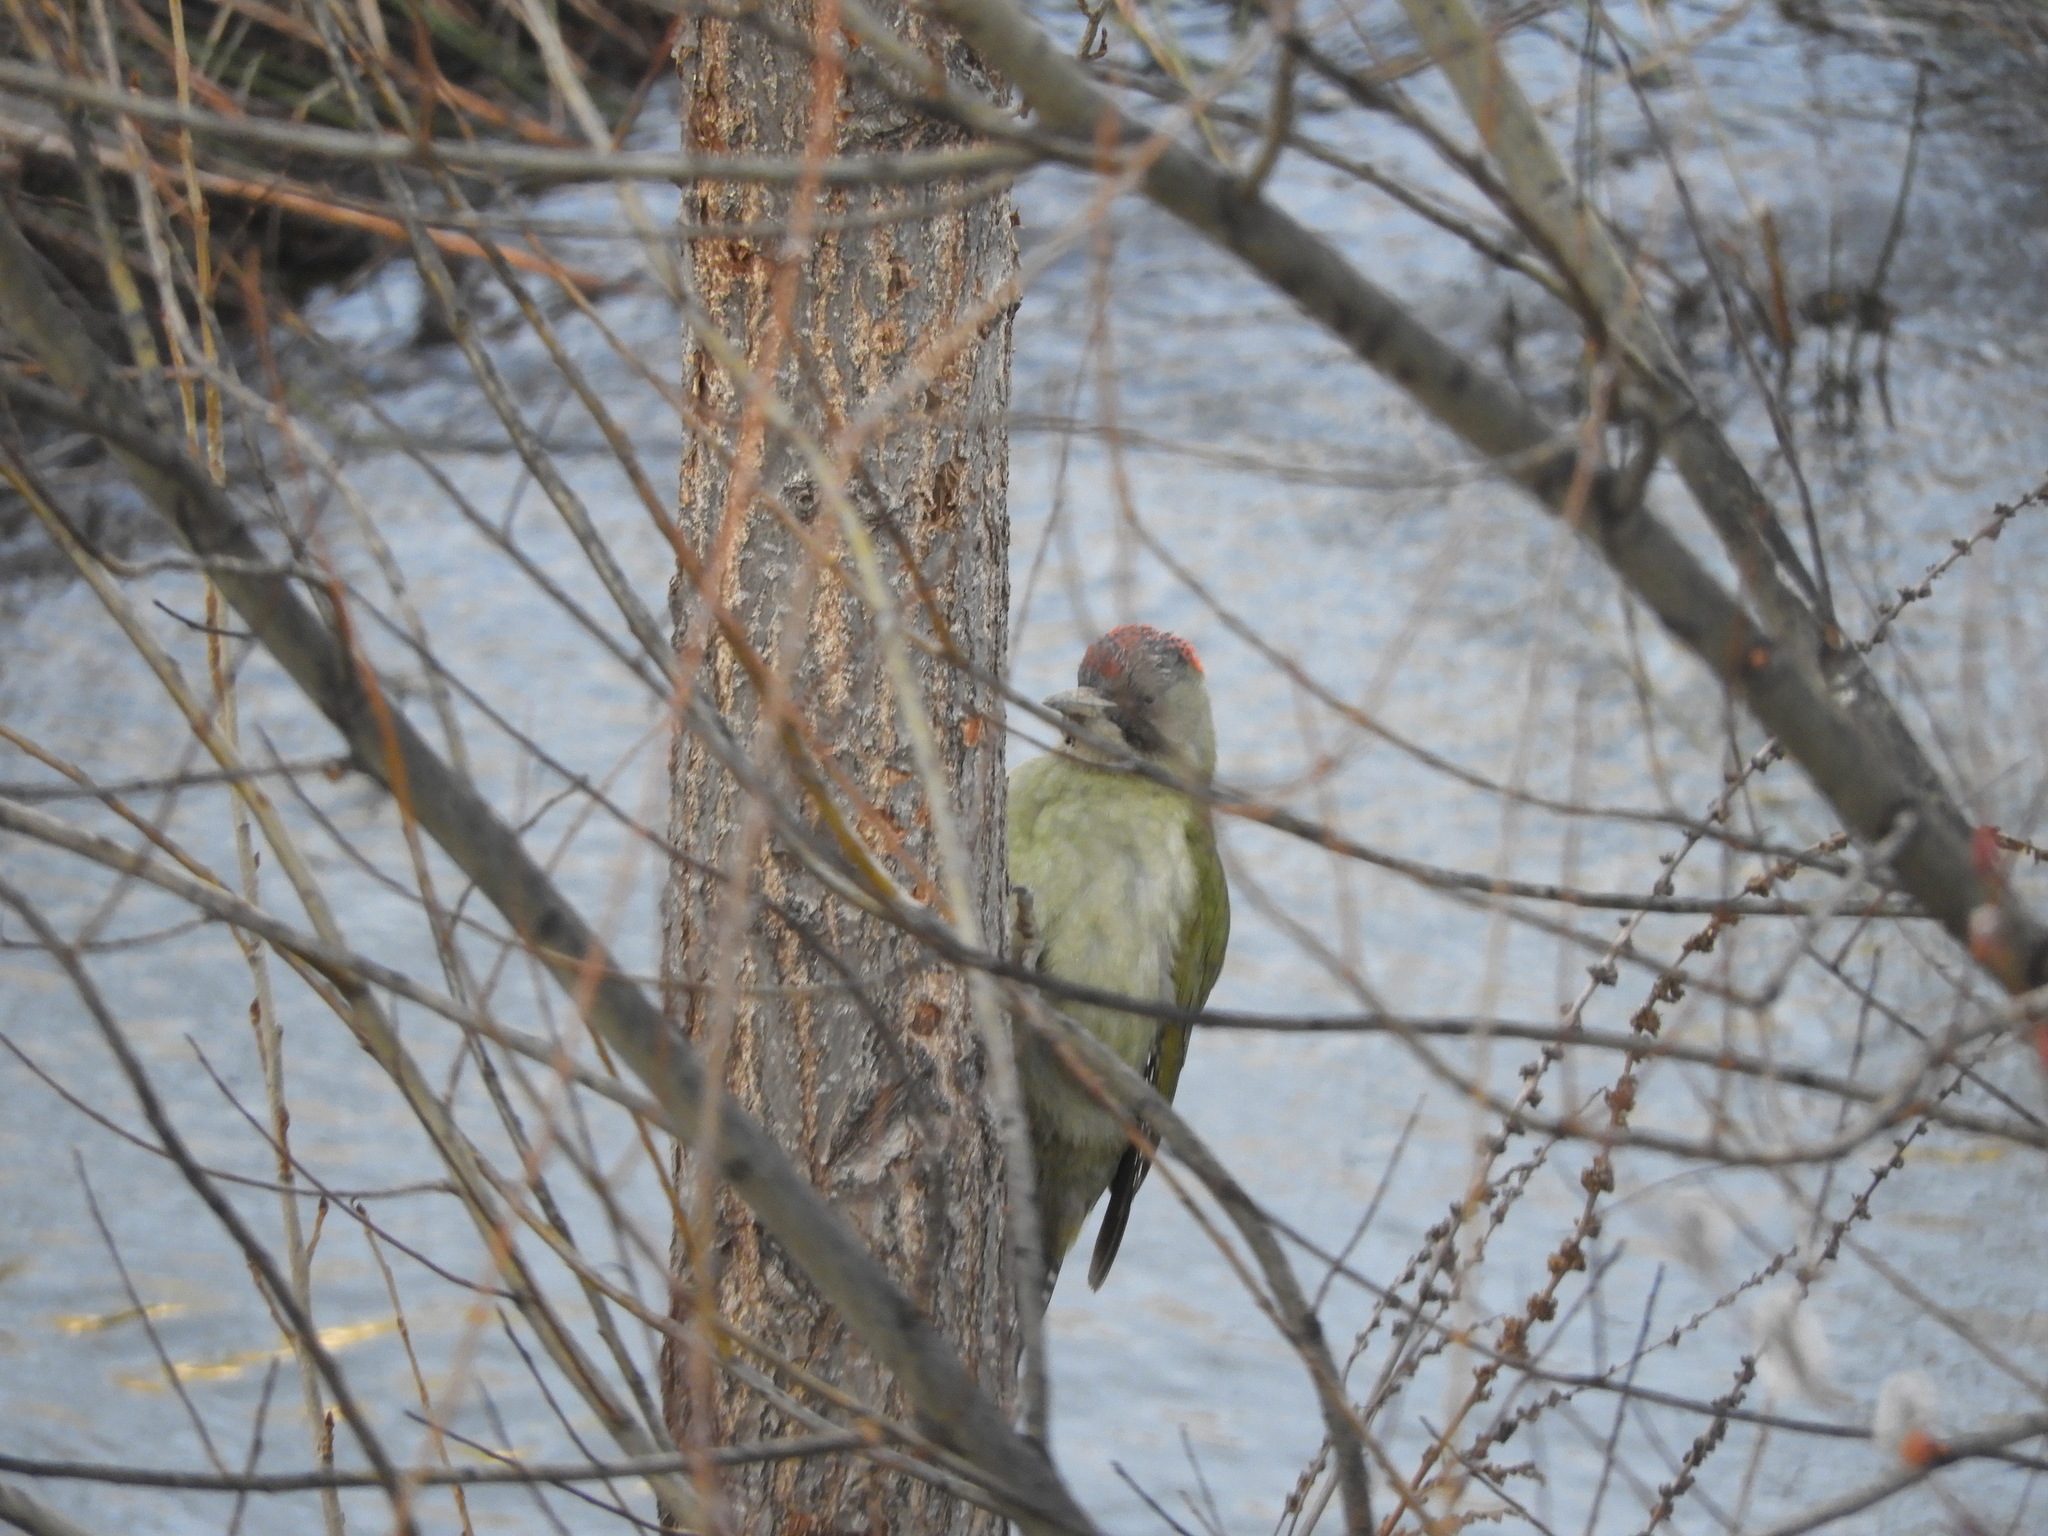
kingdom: Animalia
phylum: Chordata
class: Aves
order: Piciformes
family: Picidae
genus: Picus
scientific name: Picus sharpei
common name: Iberian green woodpecker
